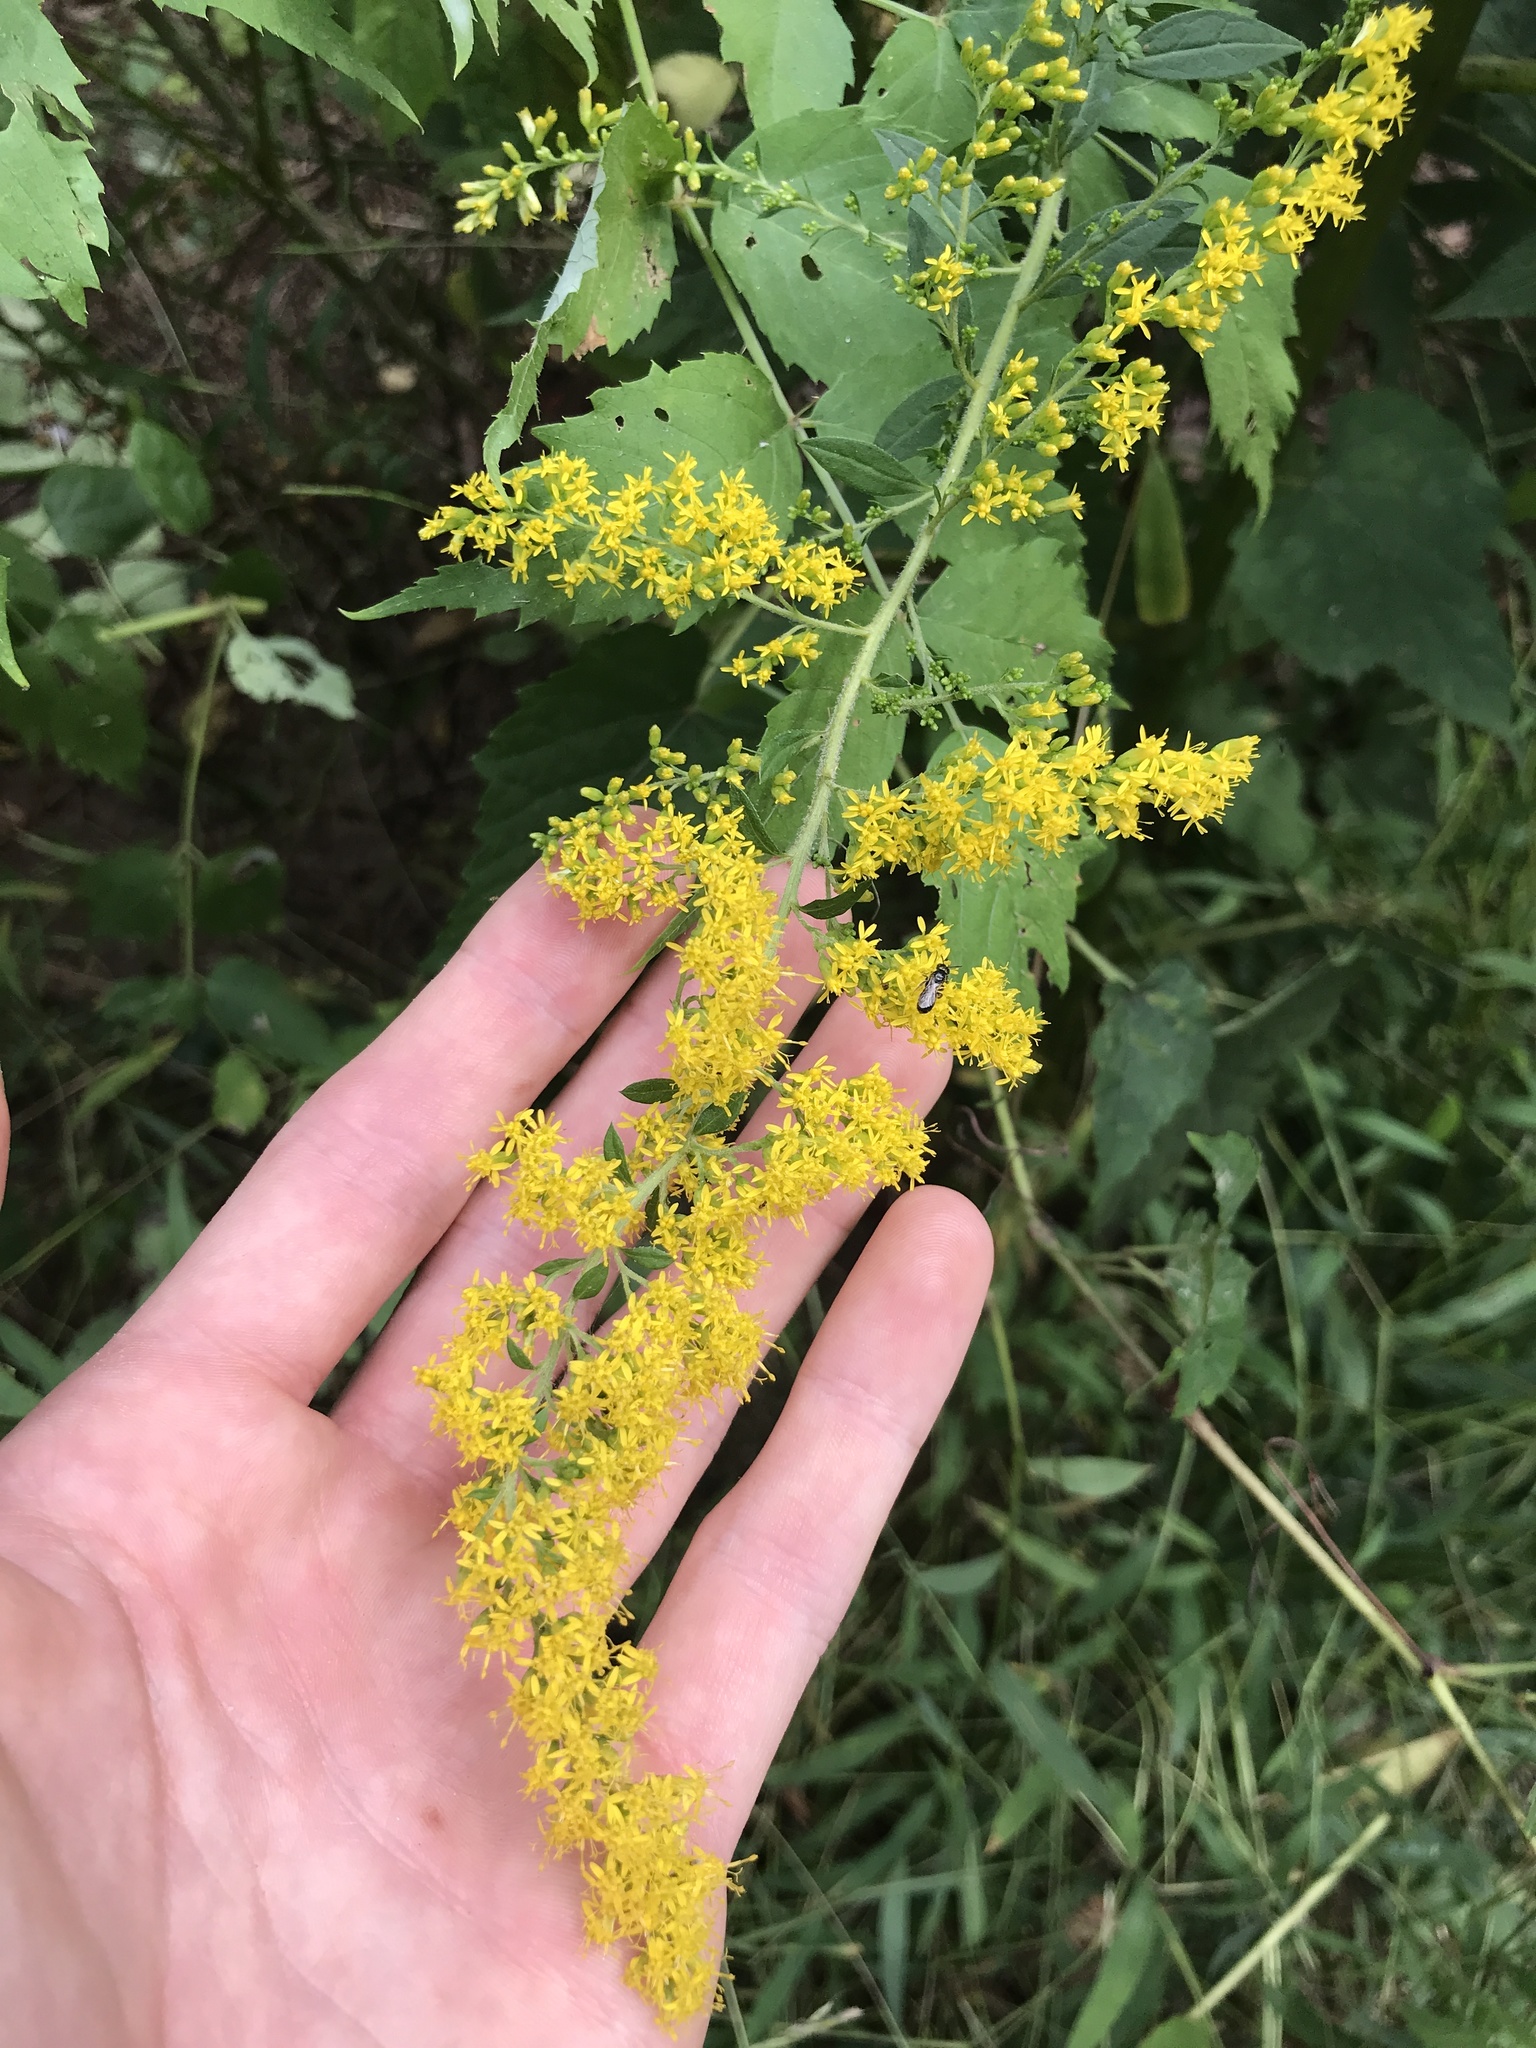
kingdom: Plantae
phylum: Tracheophyta
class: Magnoliopsida
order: Asterales
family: Asteraceae
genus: Solidago
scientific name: Solidago rugosa
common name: Rough-stemmed goldenrod
